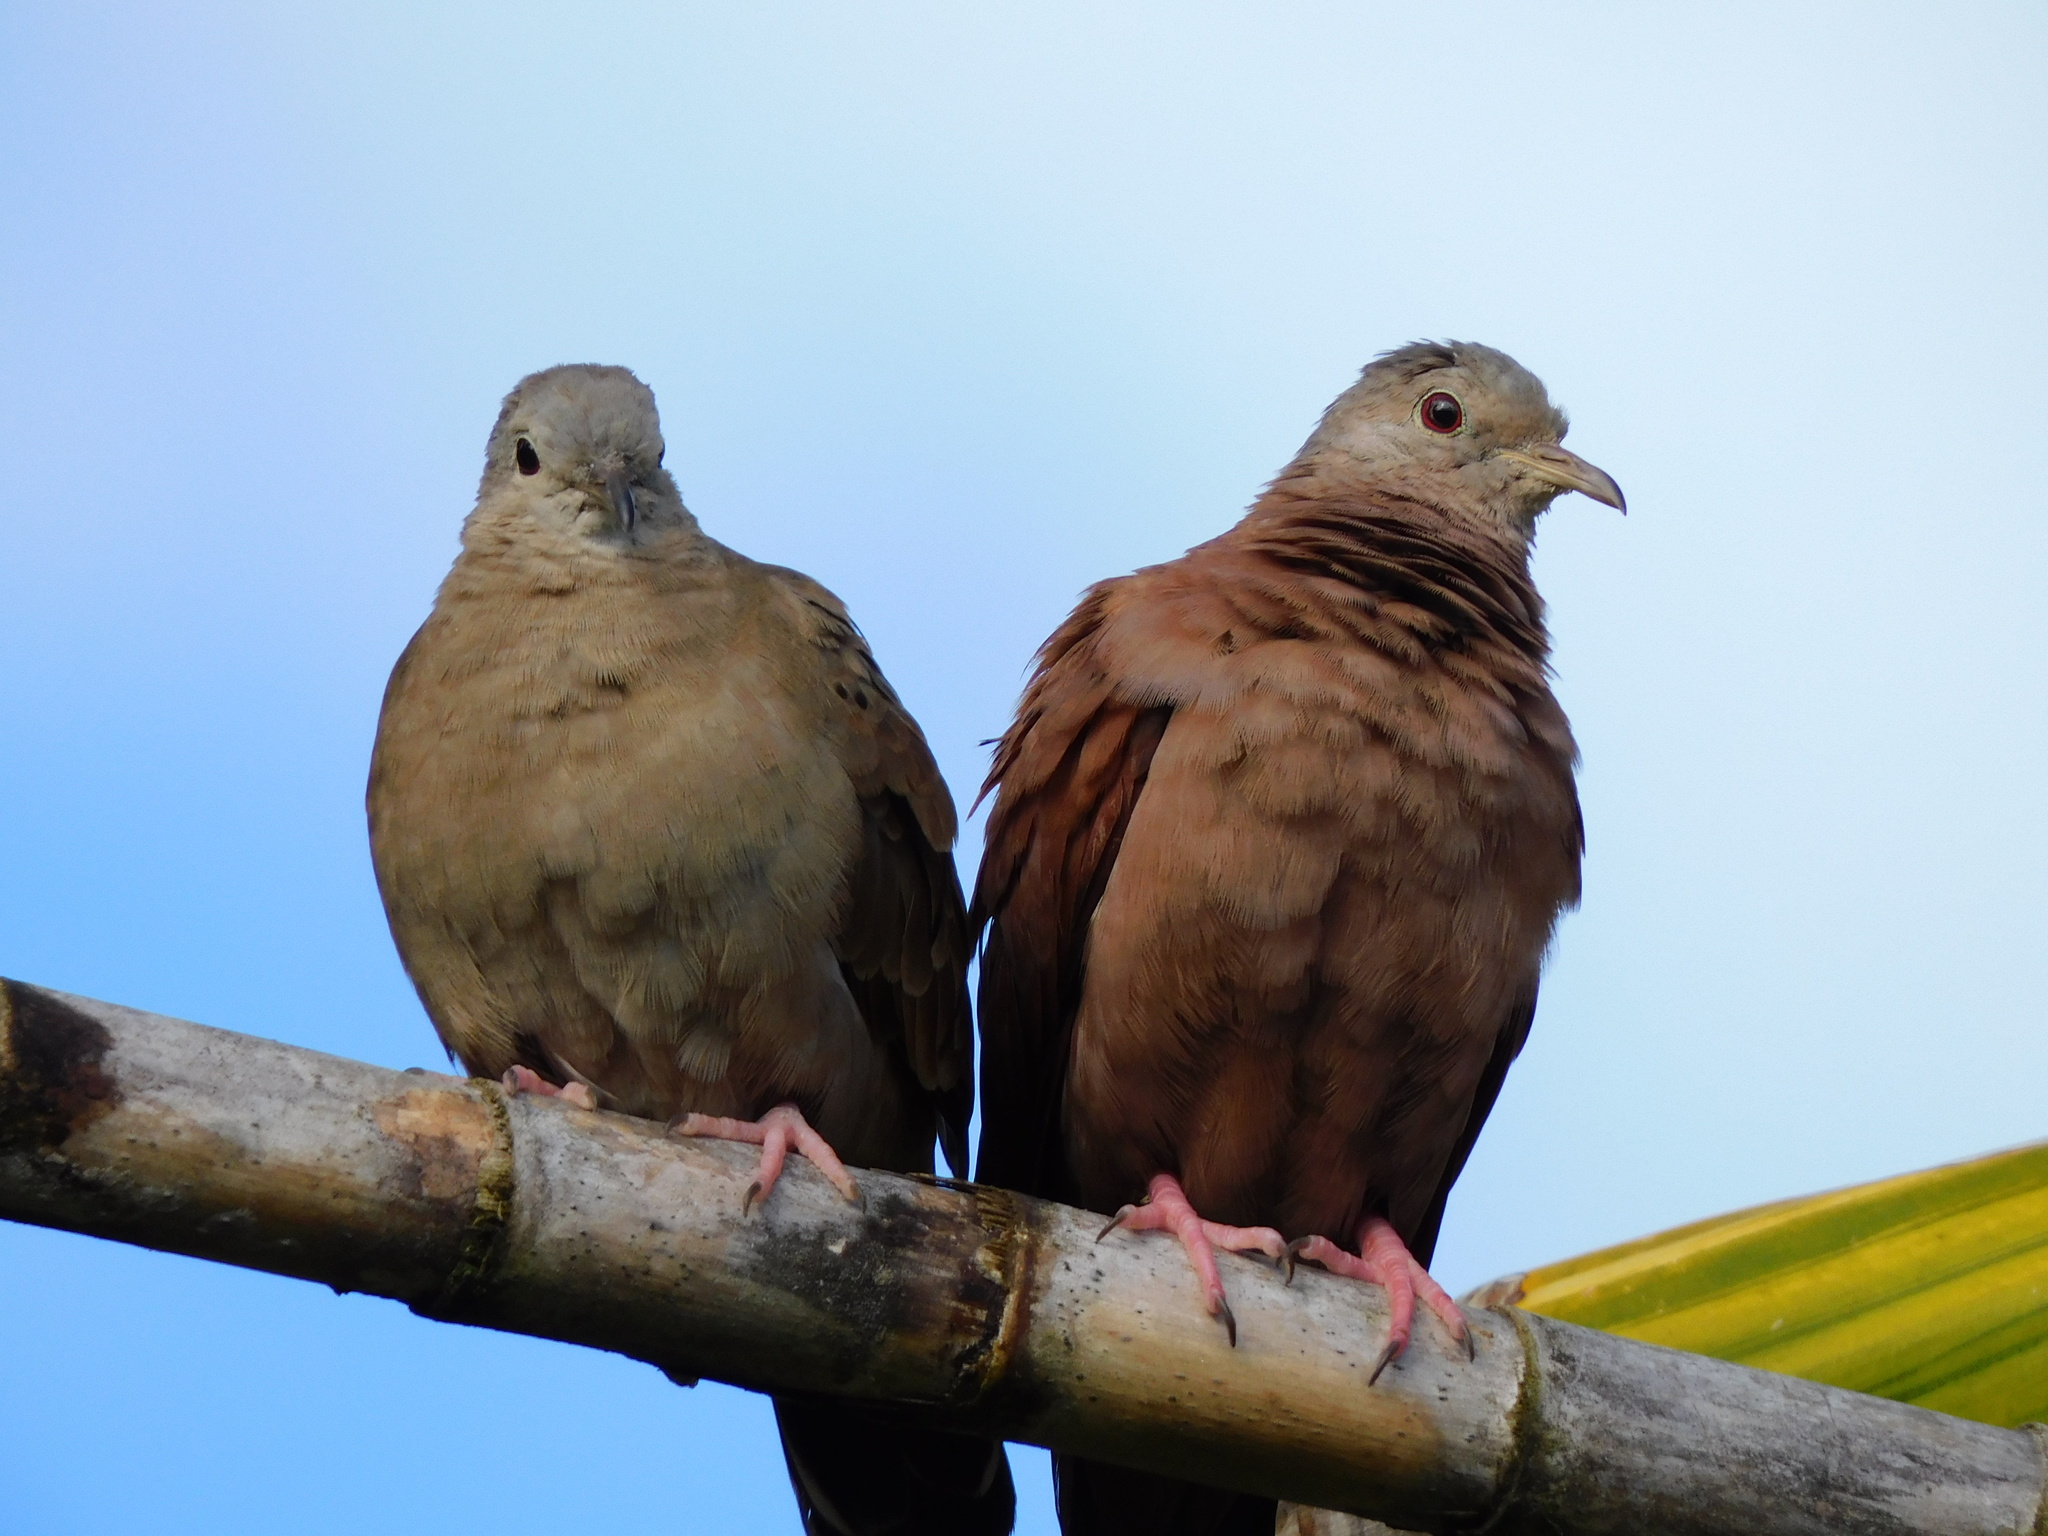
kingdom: Animalia
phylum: Chordata
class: Aves
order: Columbiformes
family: Columbidae
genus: Columbina
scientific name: Columbina talpacoti
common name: Ruddy ground dove
